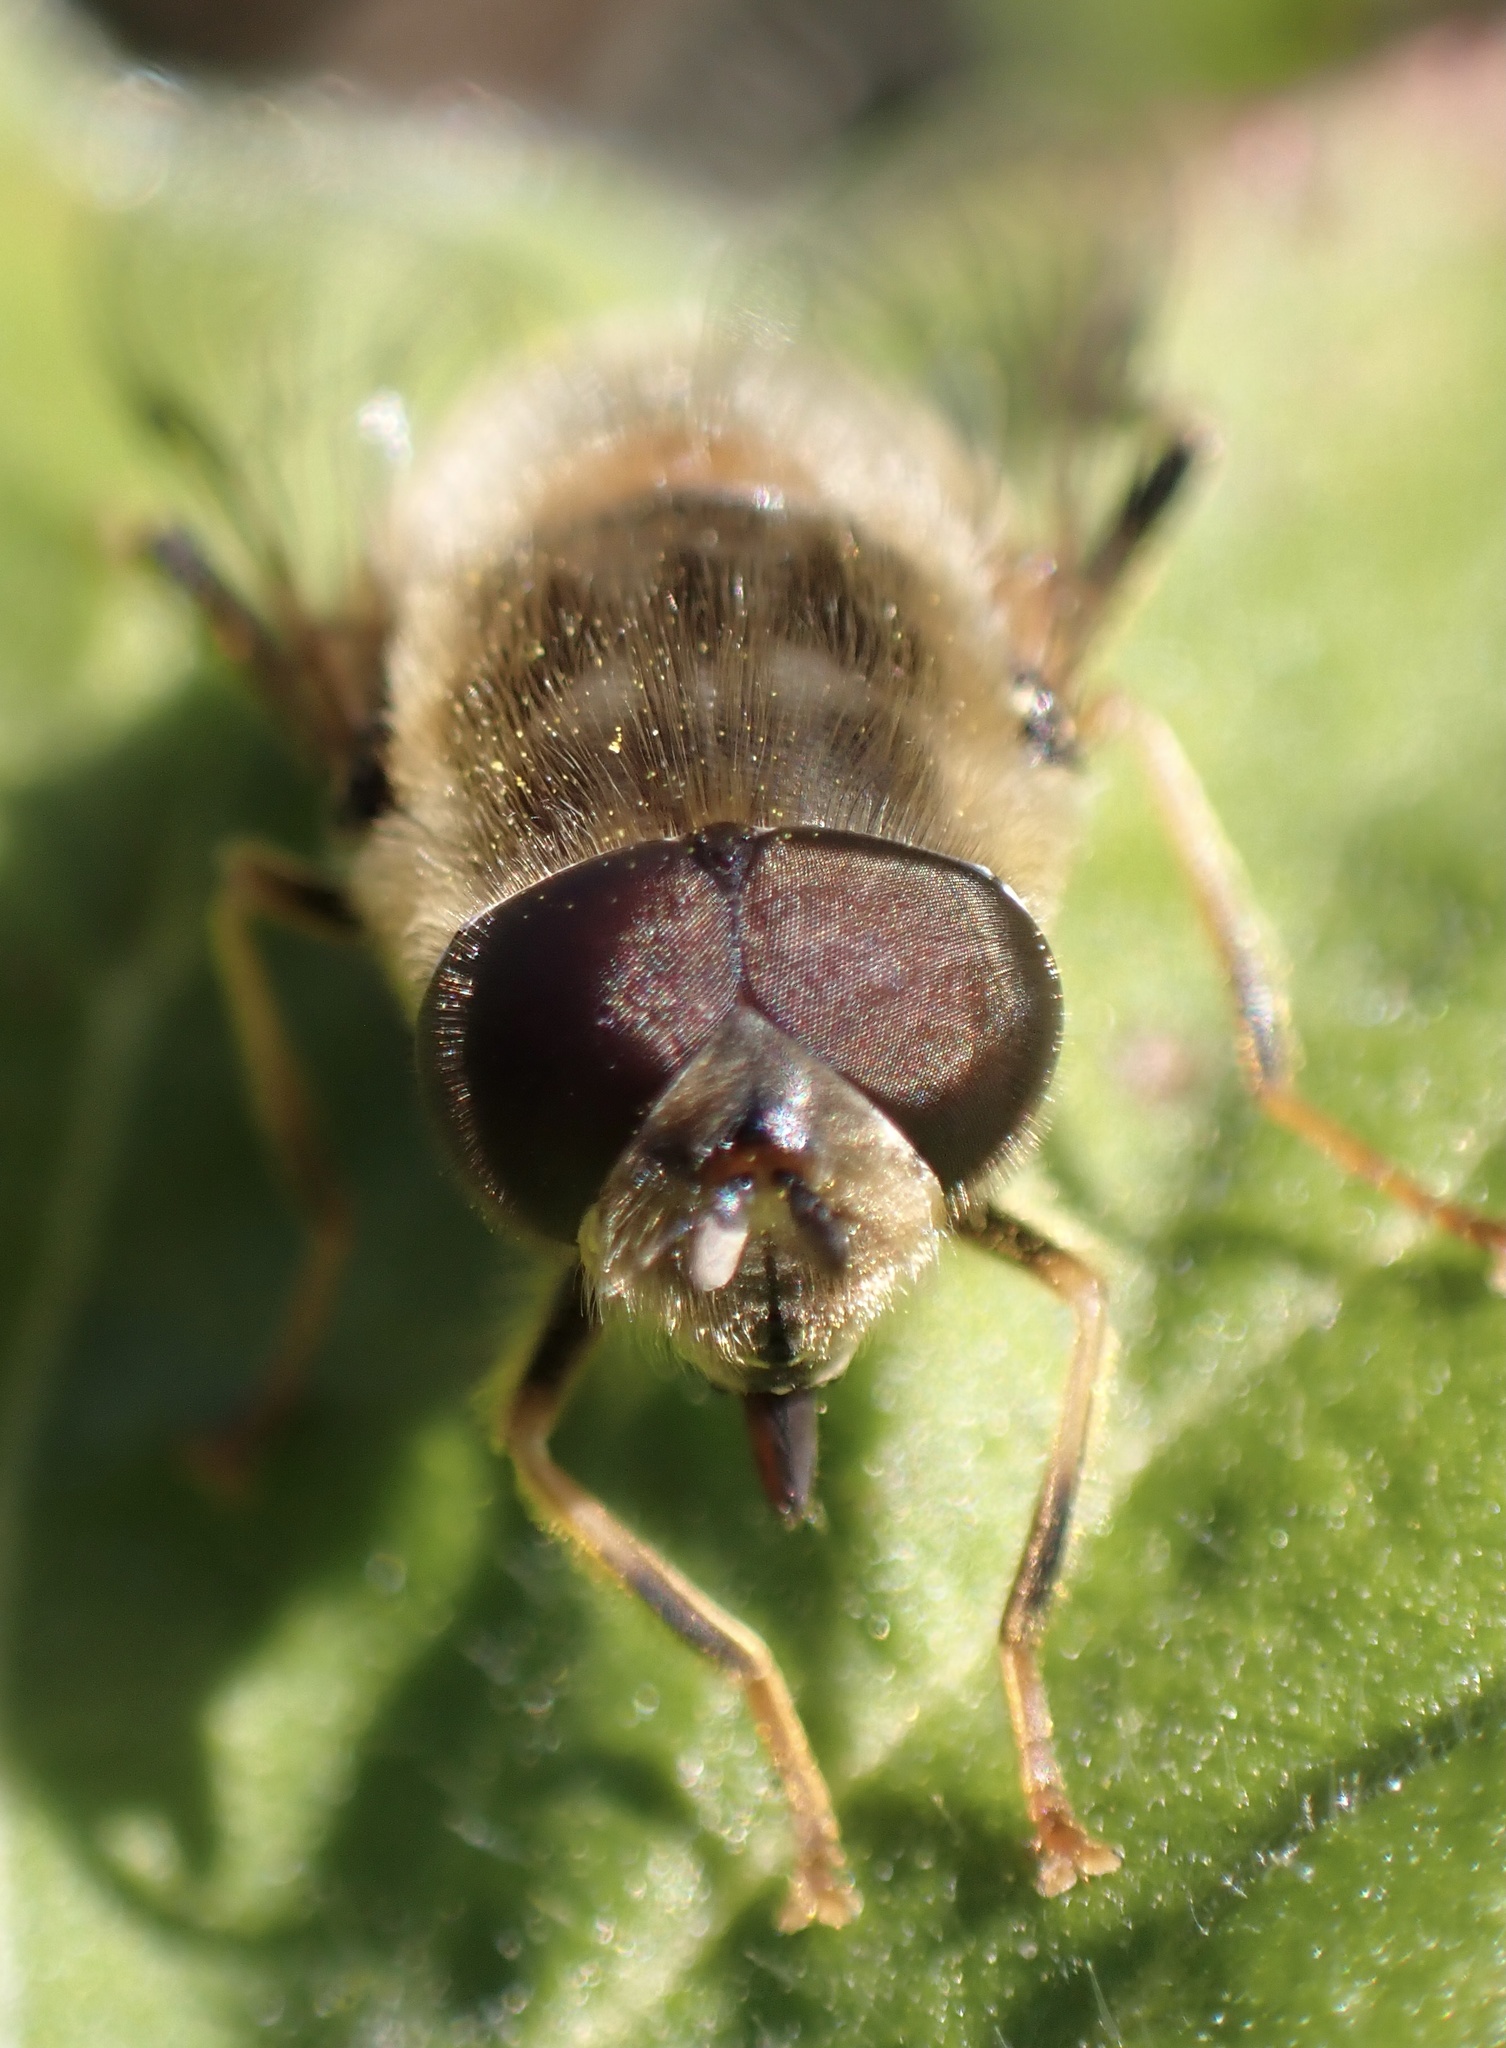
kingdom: Animalia
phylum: Arthropoda
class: Insecta
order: Diptera
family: Syrphidae
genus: Eristalis
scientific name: Eristalis pertinax
